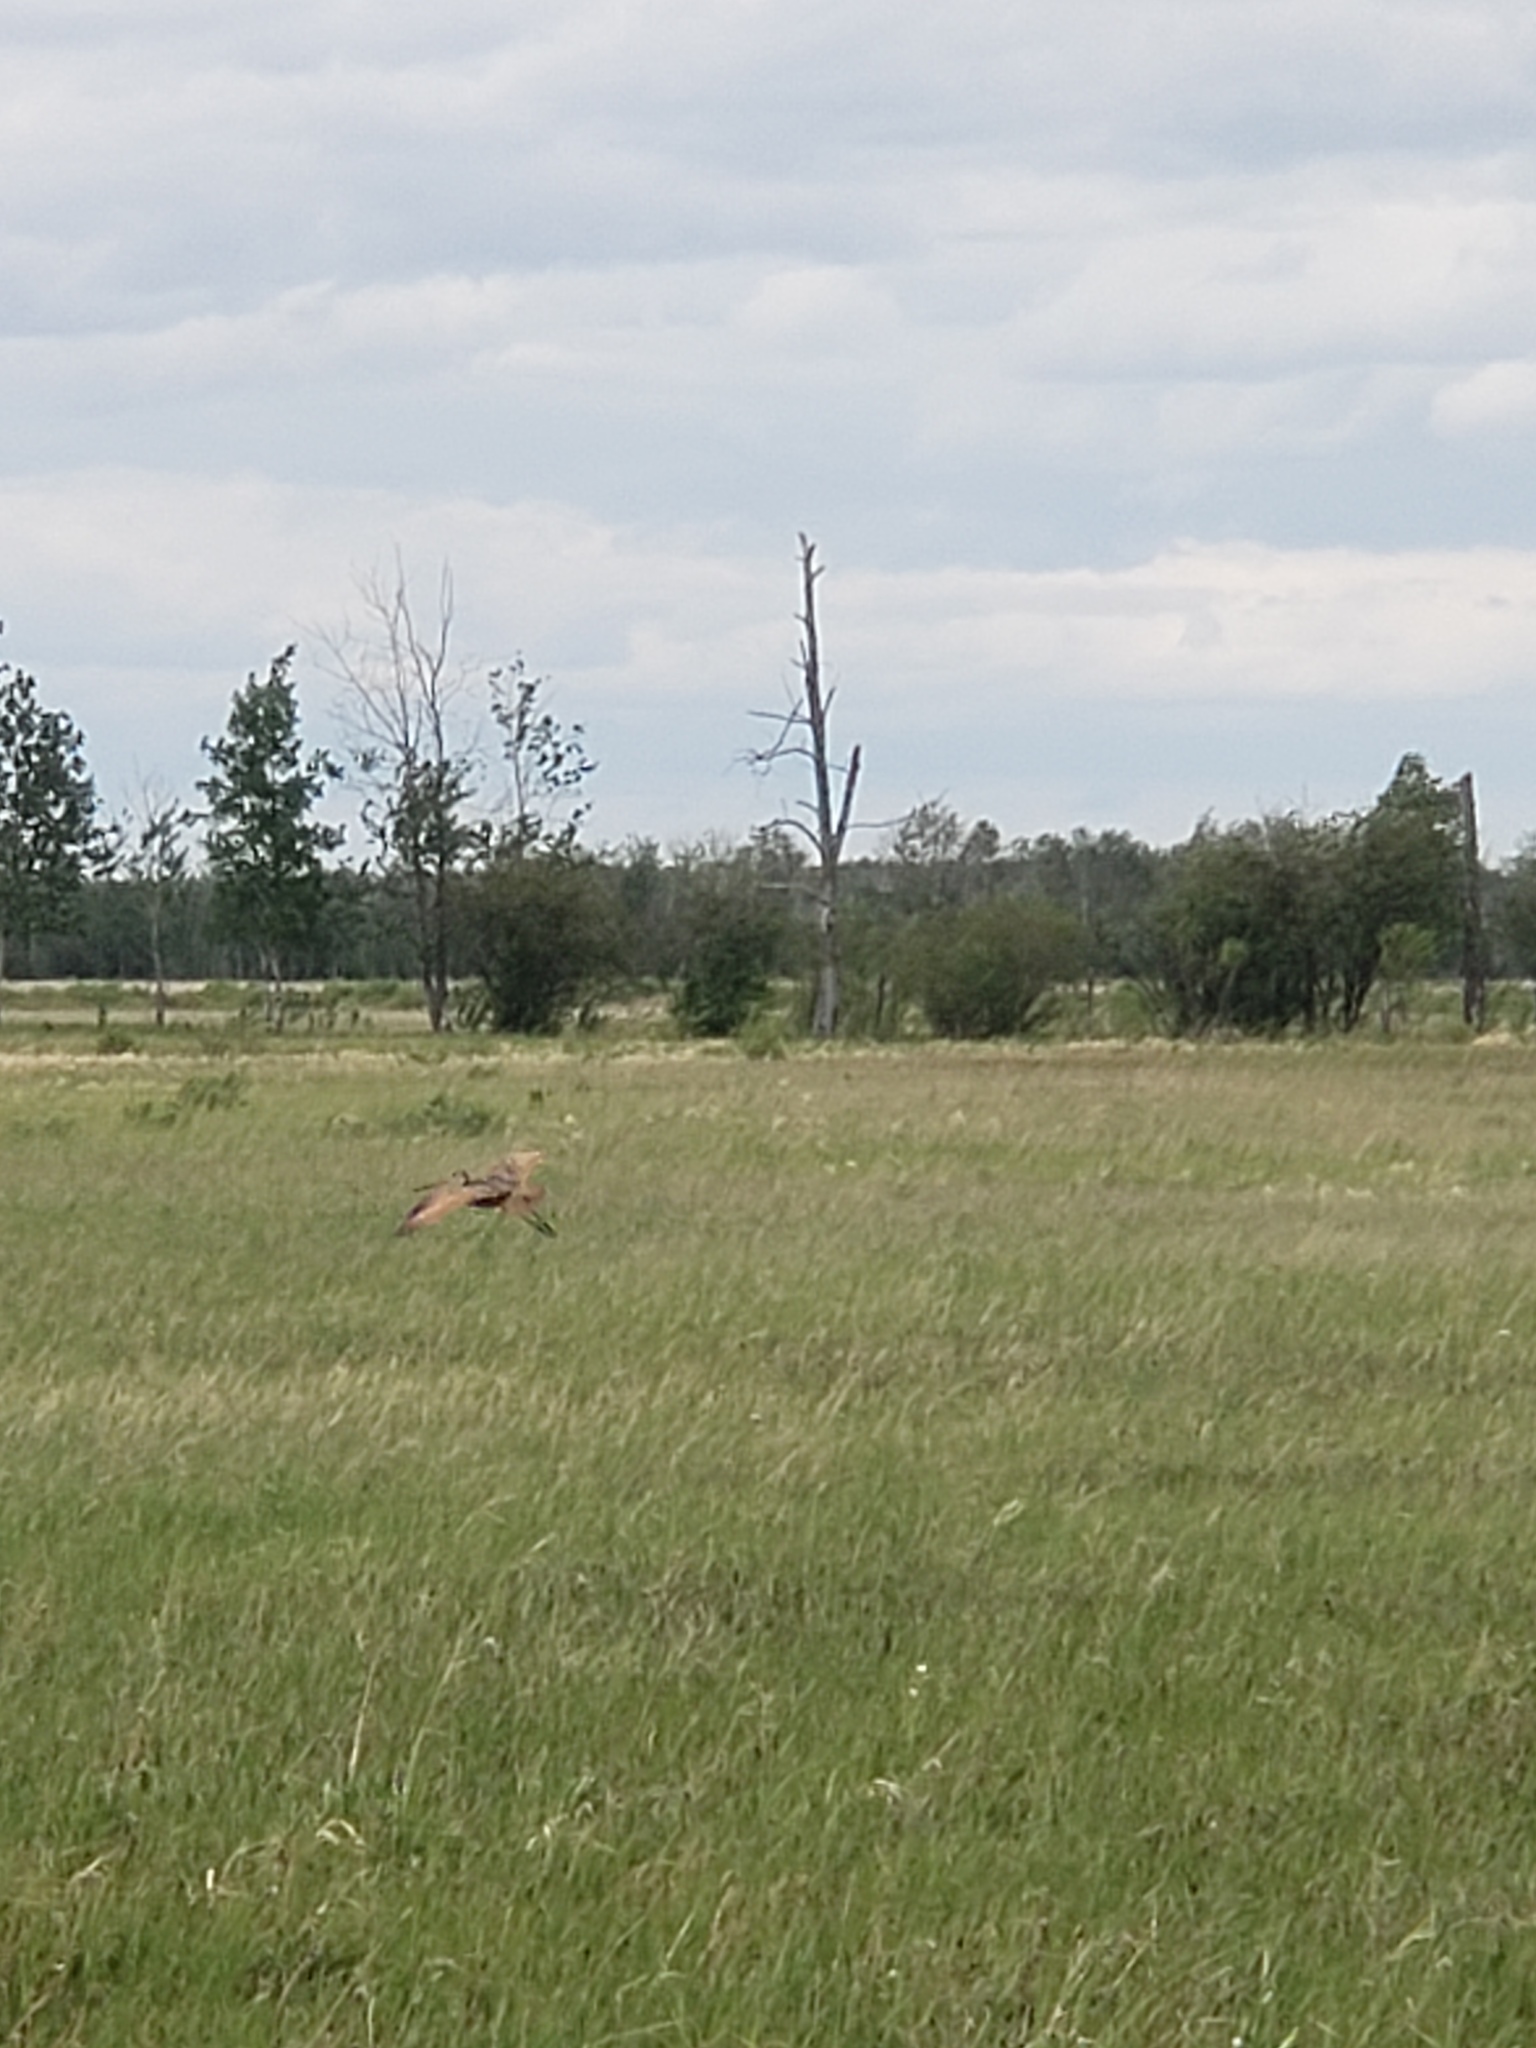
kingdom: Animalia
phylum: Chordata
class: Aves
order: Charadriiformes
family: Scolopacidae
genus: Limosa
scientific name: Limosa fedoa
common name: Marbled godwit
